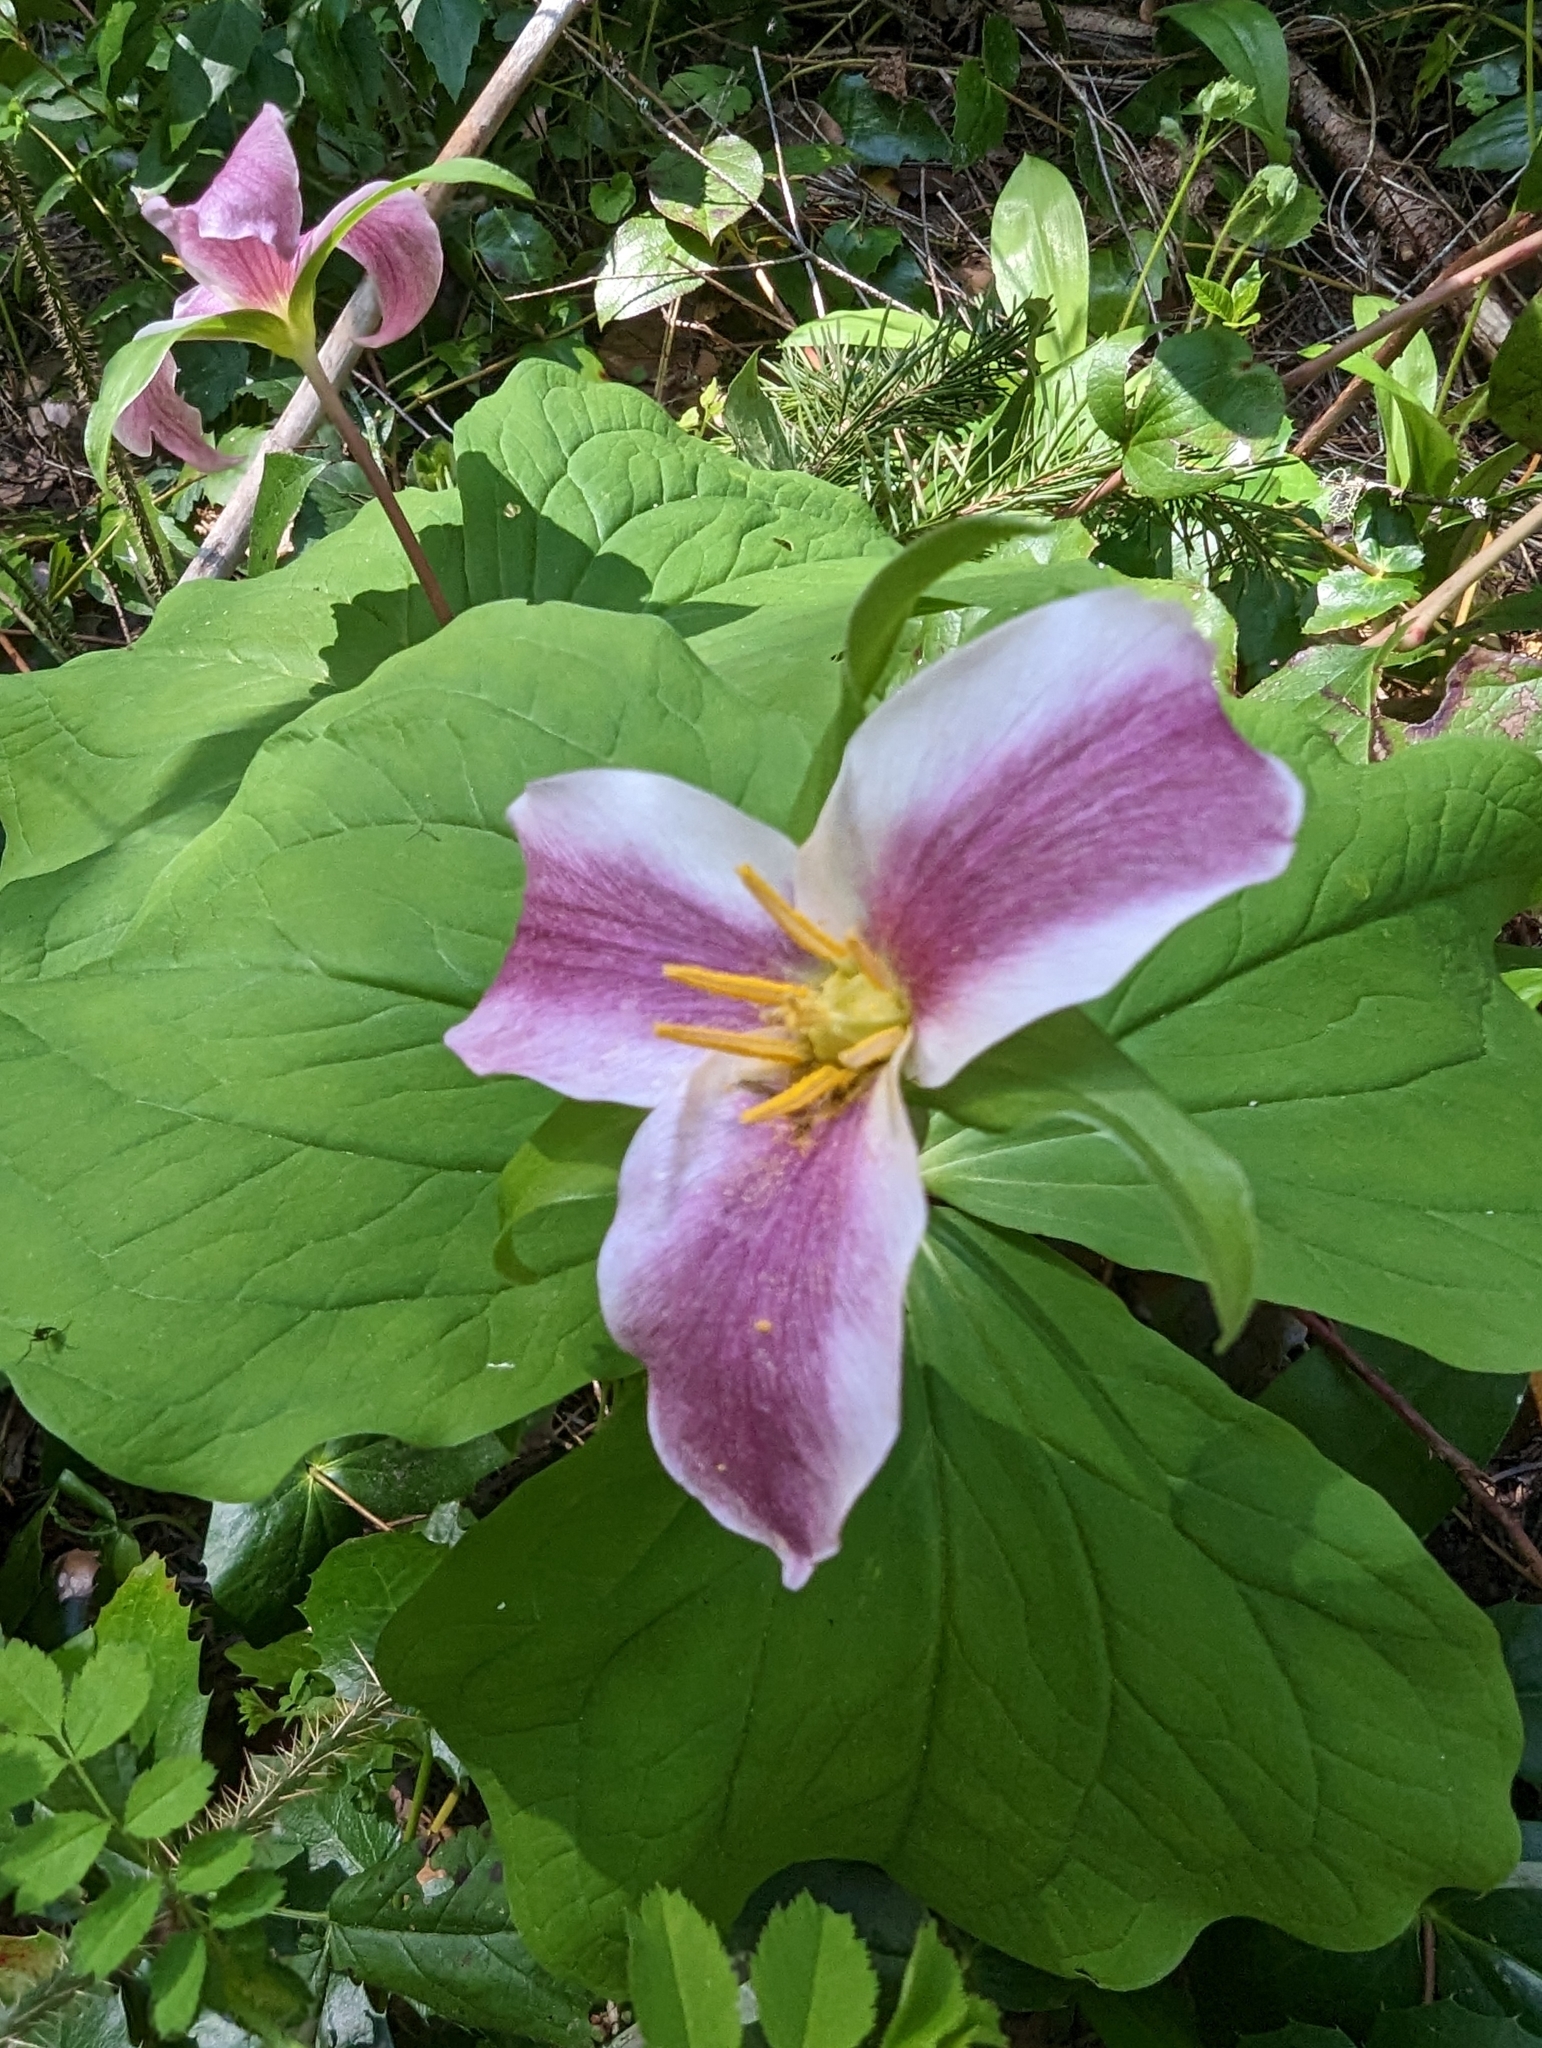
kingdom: Plantae
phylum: Tracheophyta
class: Liliopsida
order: Liliales
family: Melanthiaceae
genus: Trillium
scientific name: Trillium ovatum
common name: Pacific trillium
